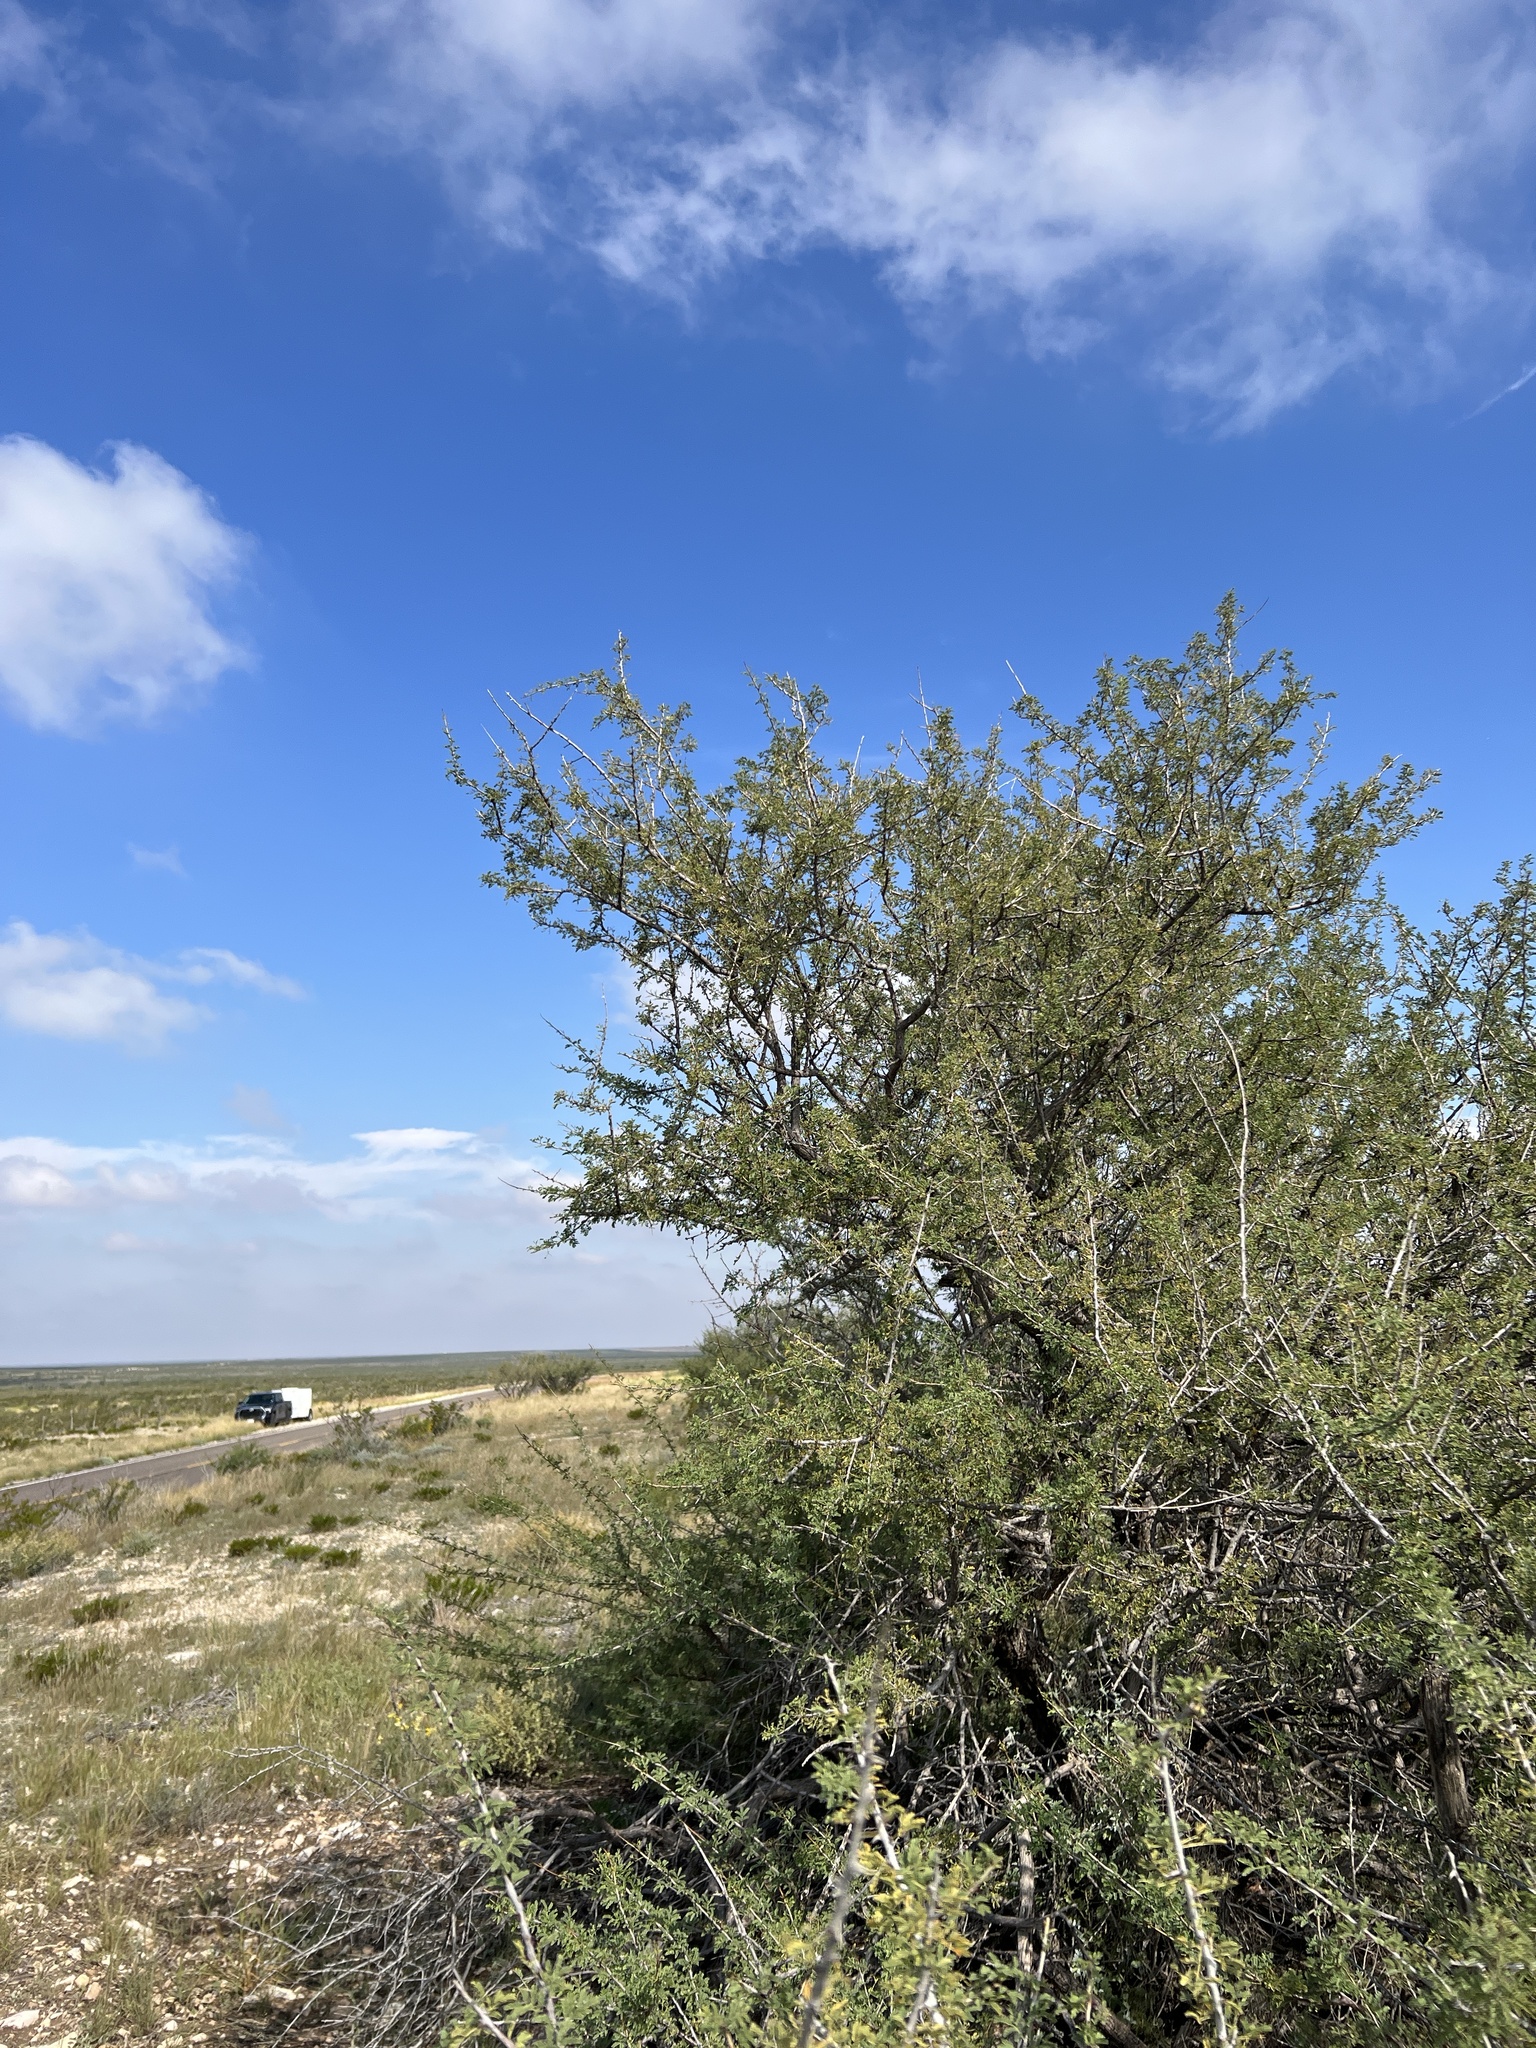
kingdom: Plantae
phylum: Tracheophyta
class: Magnoliopsida
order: Fabales
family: Fabaceae
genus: Senegalia
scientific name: Senegalia greggii
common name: Texas-mimosa
